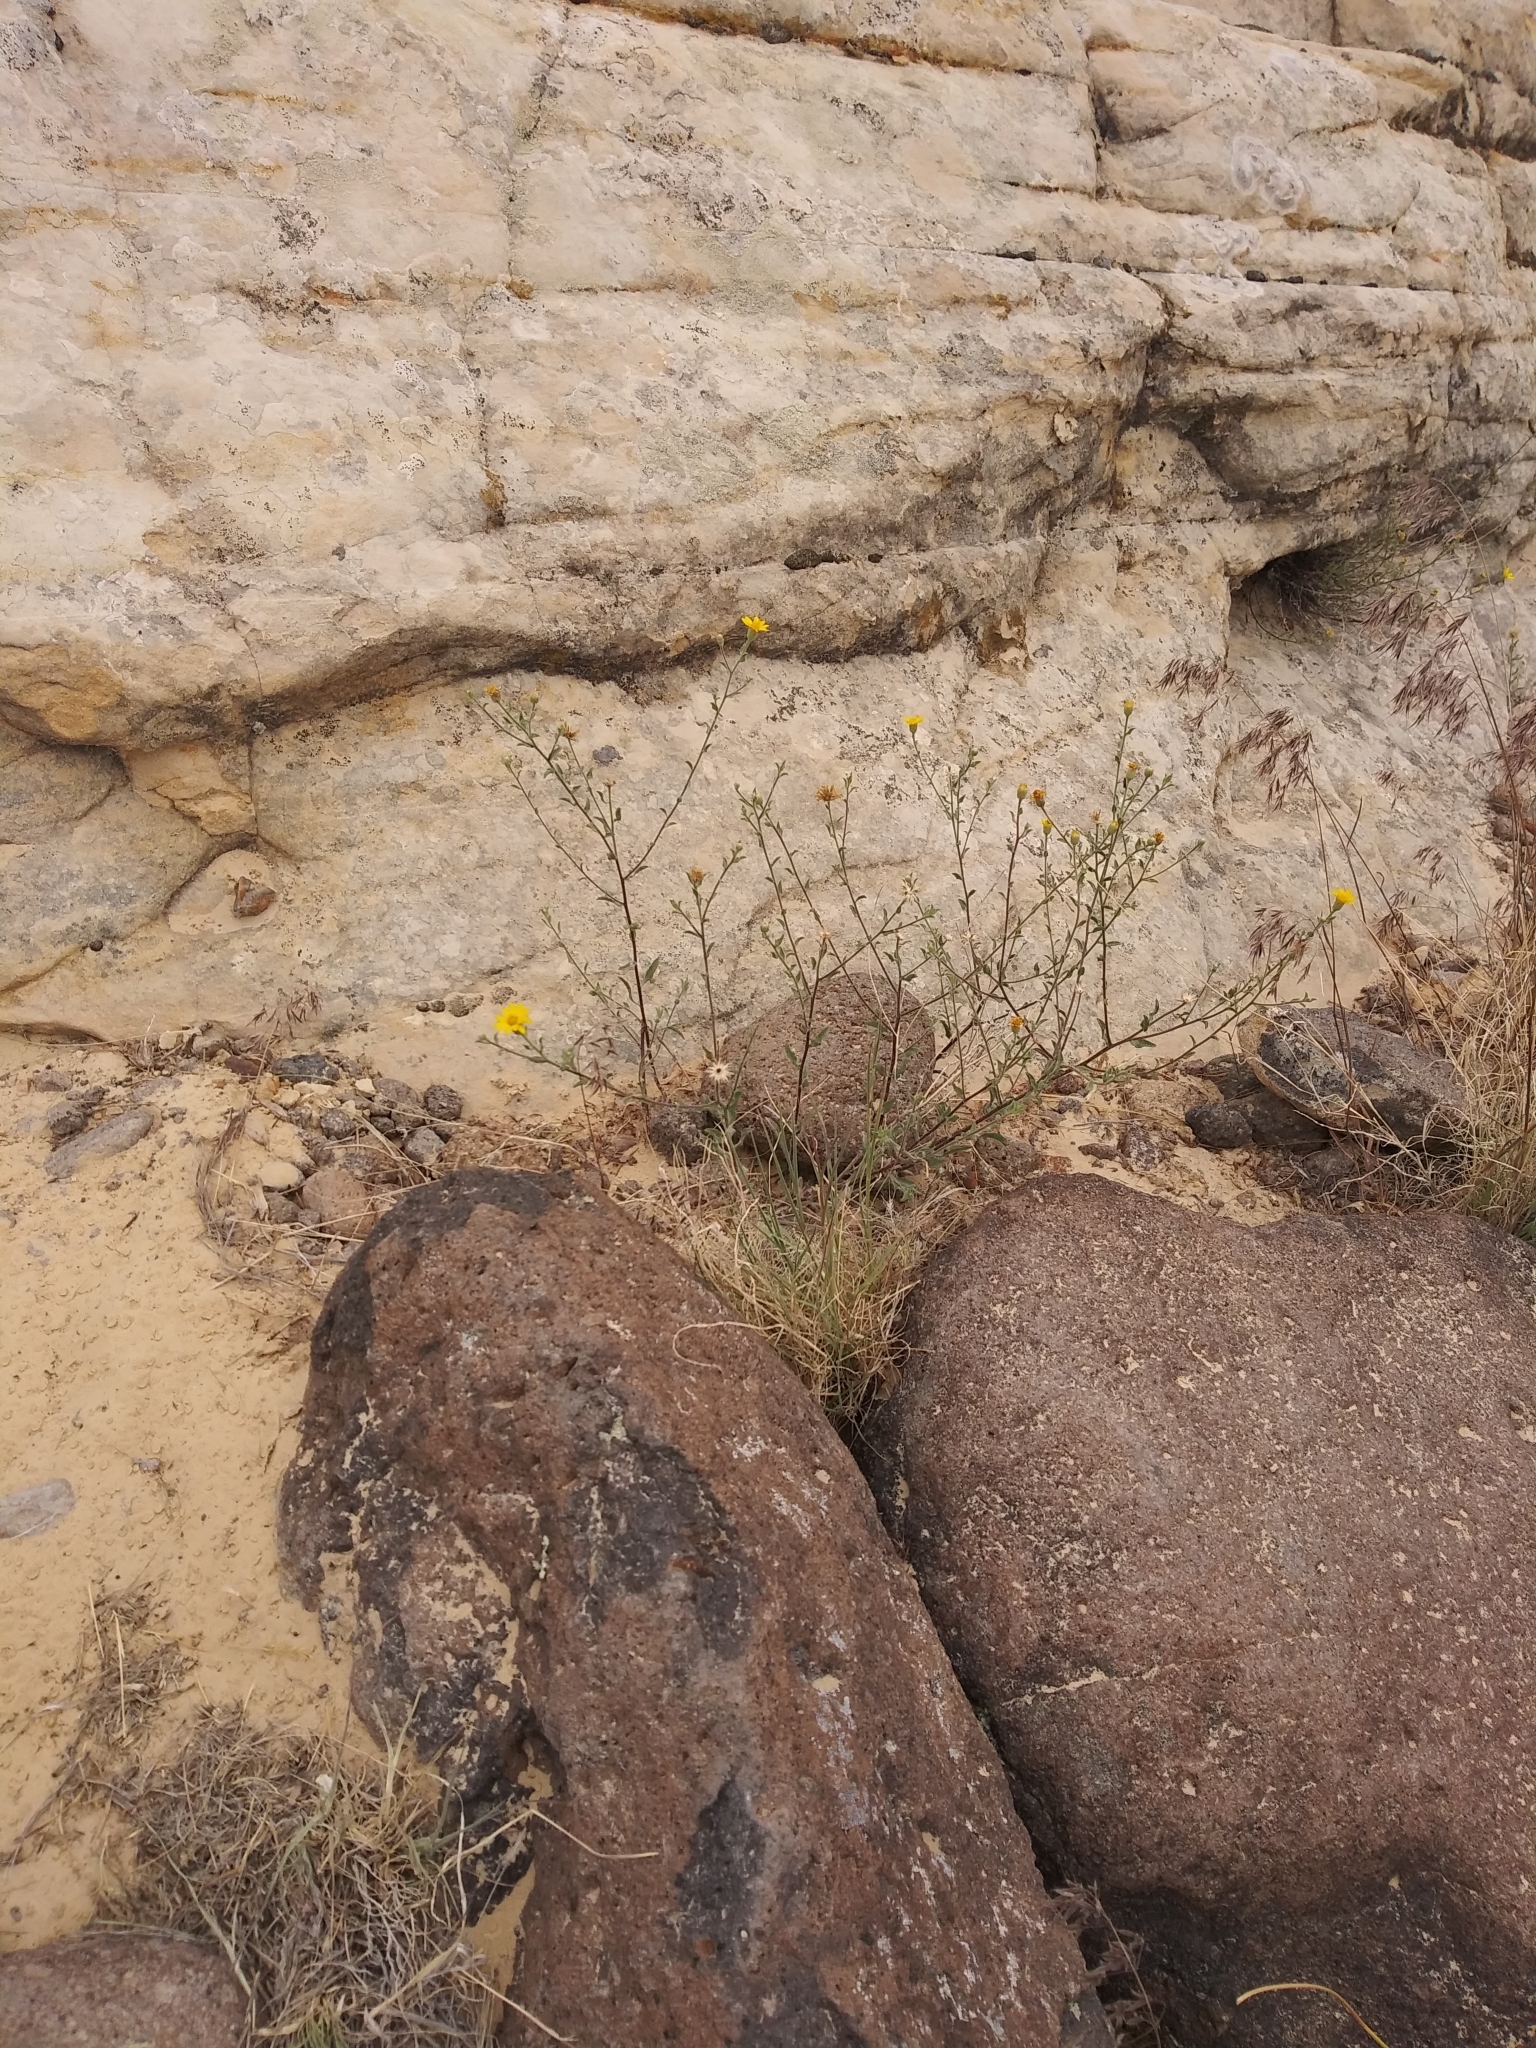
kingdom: Plantae
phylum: Tracheophyta
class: Magnoliopsida
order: Asterales
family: Asteraceae
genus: Heterotheca
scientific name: Heterotheca polothrix
